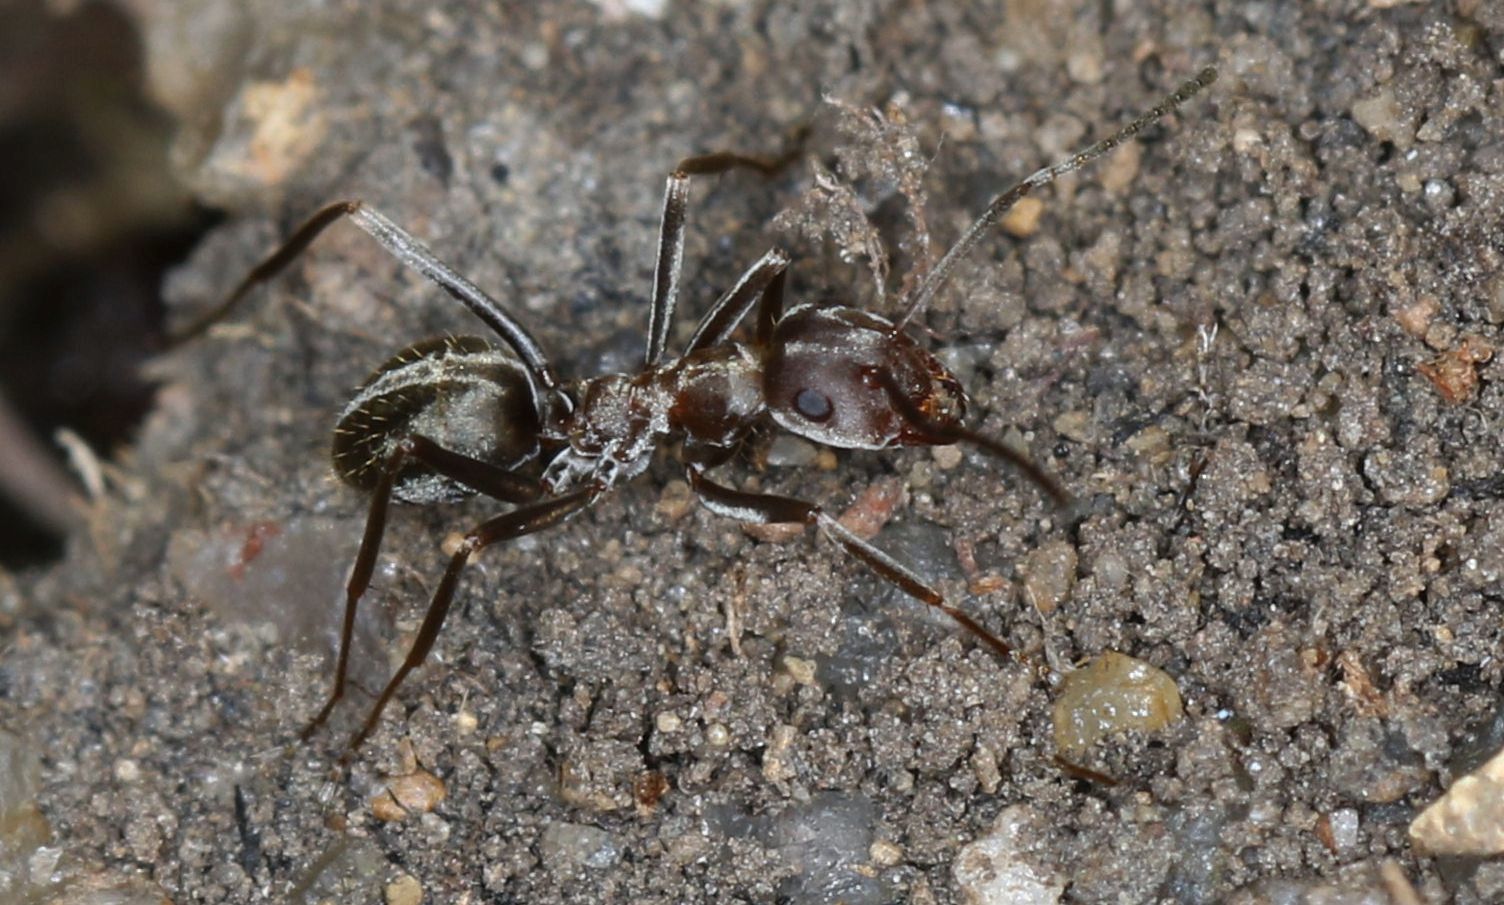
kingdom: Animalia
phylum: Arthropoda
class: Insecta
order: Hymenoptera
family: Formicidae
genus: Anoplolepis
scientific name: Anoplolepis custodiens
